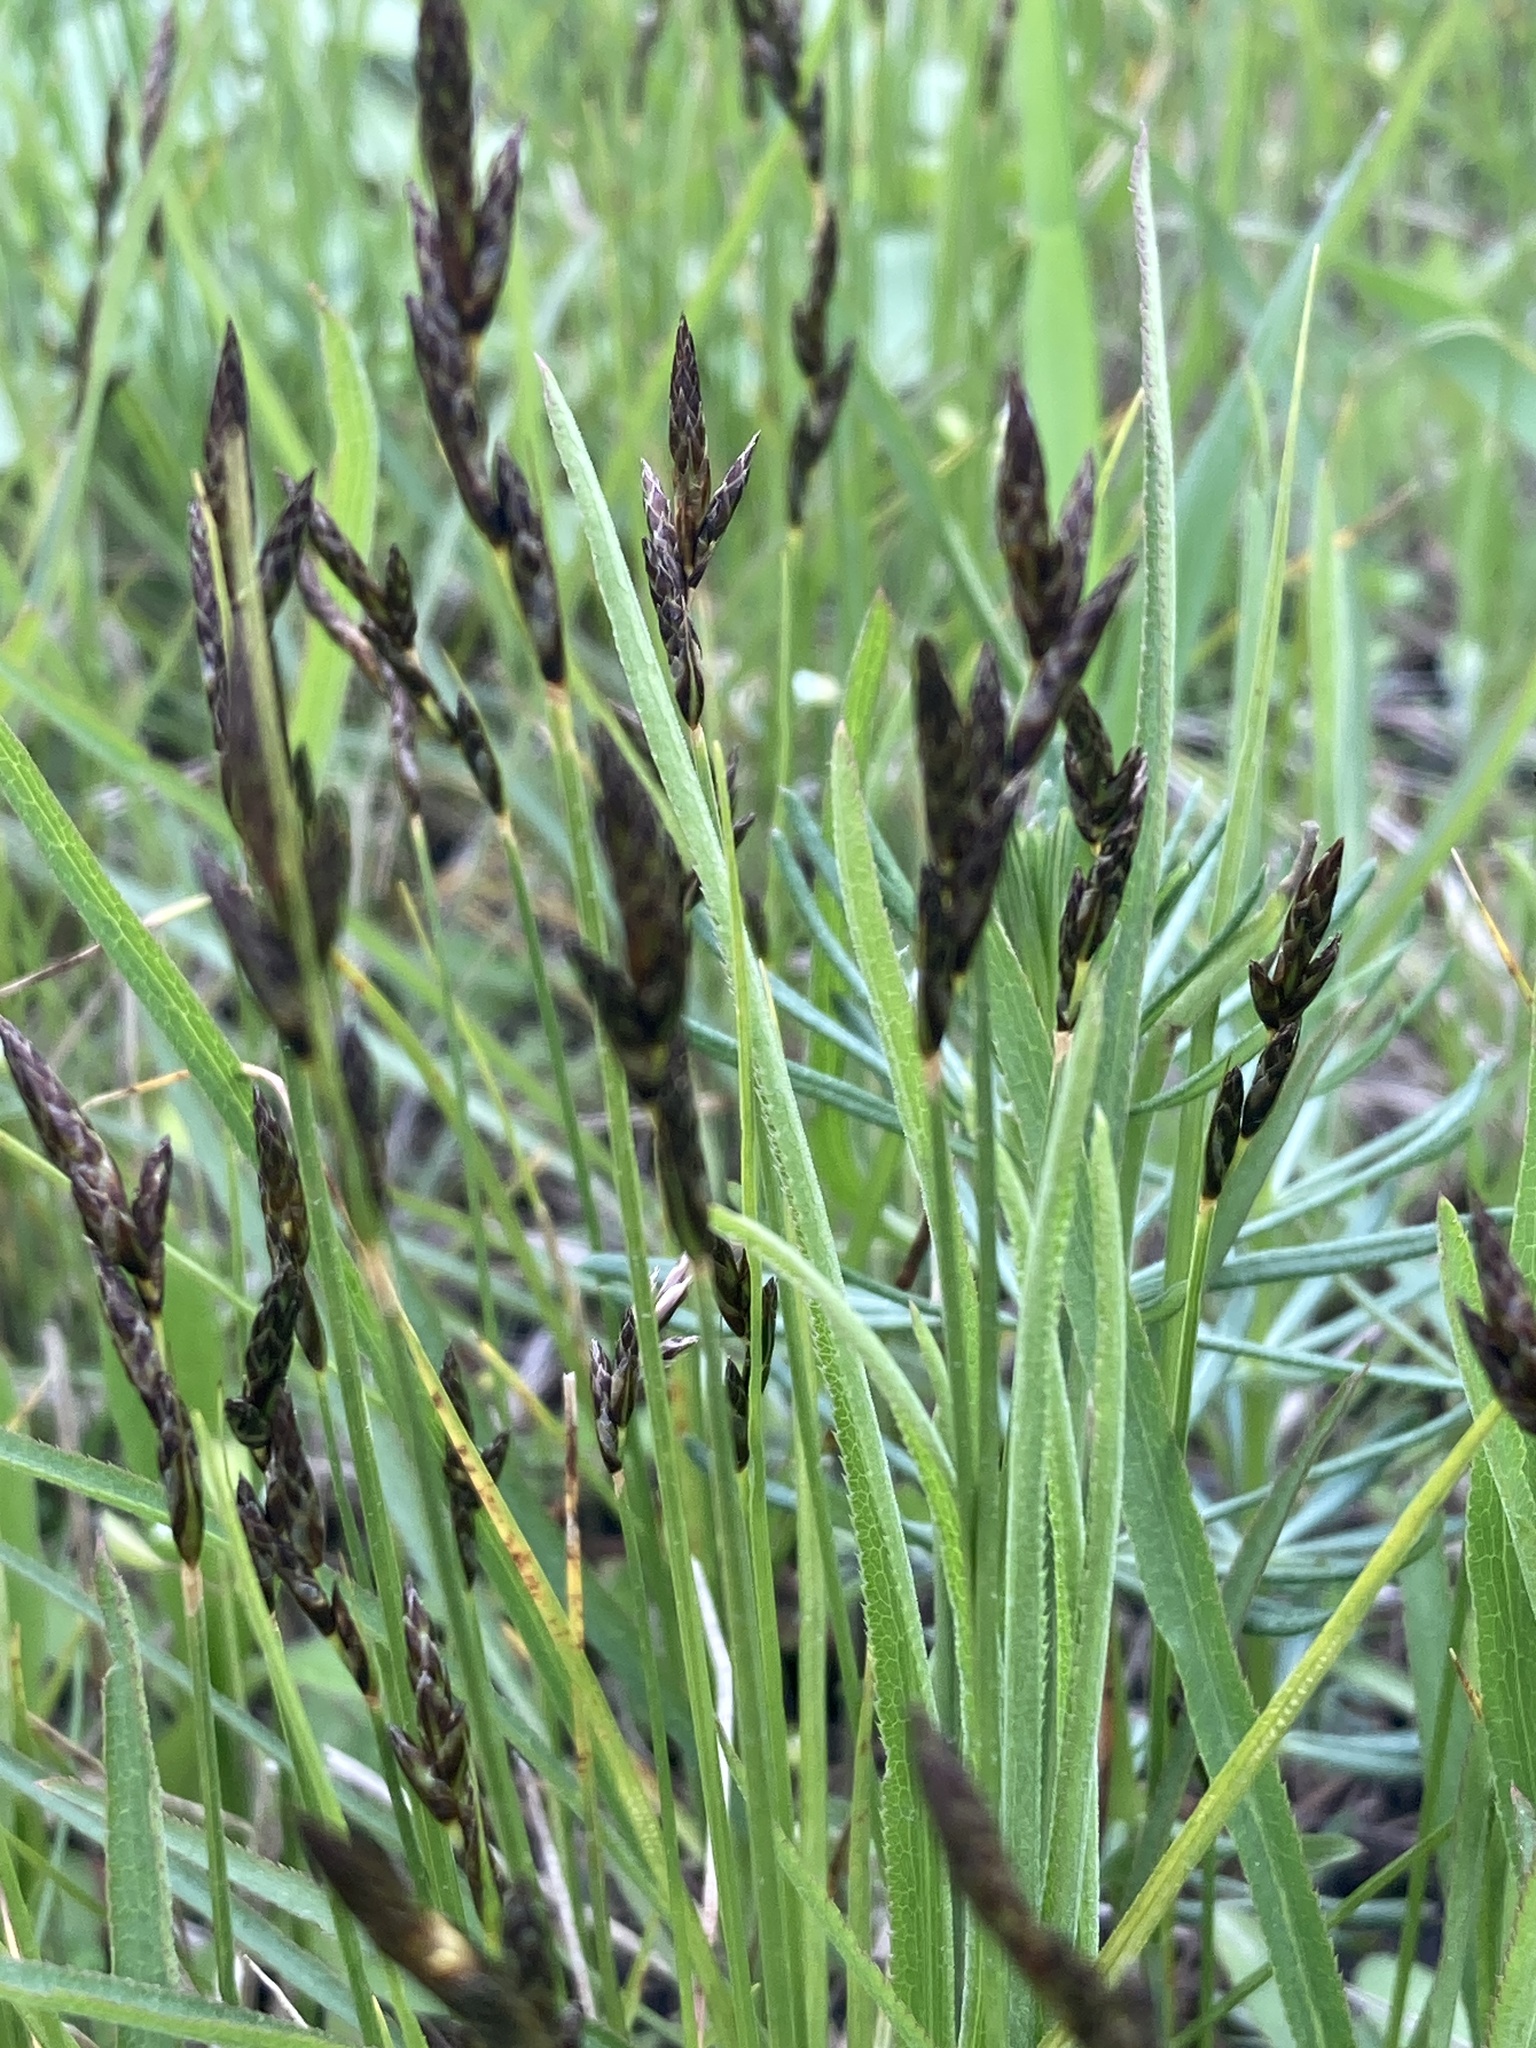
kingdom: Plantae
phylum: Tracheophyta
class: Liliopsida
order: Poales
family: Cyperaceae
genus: Carex
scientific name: Carex praecox
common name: Early sedge
